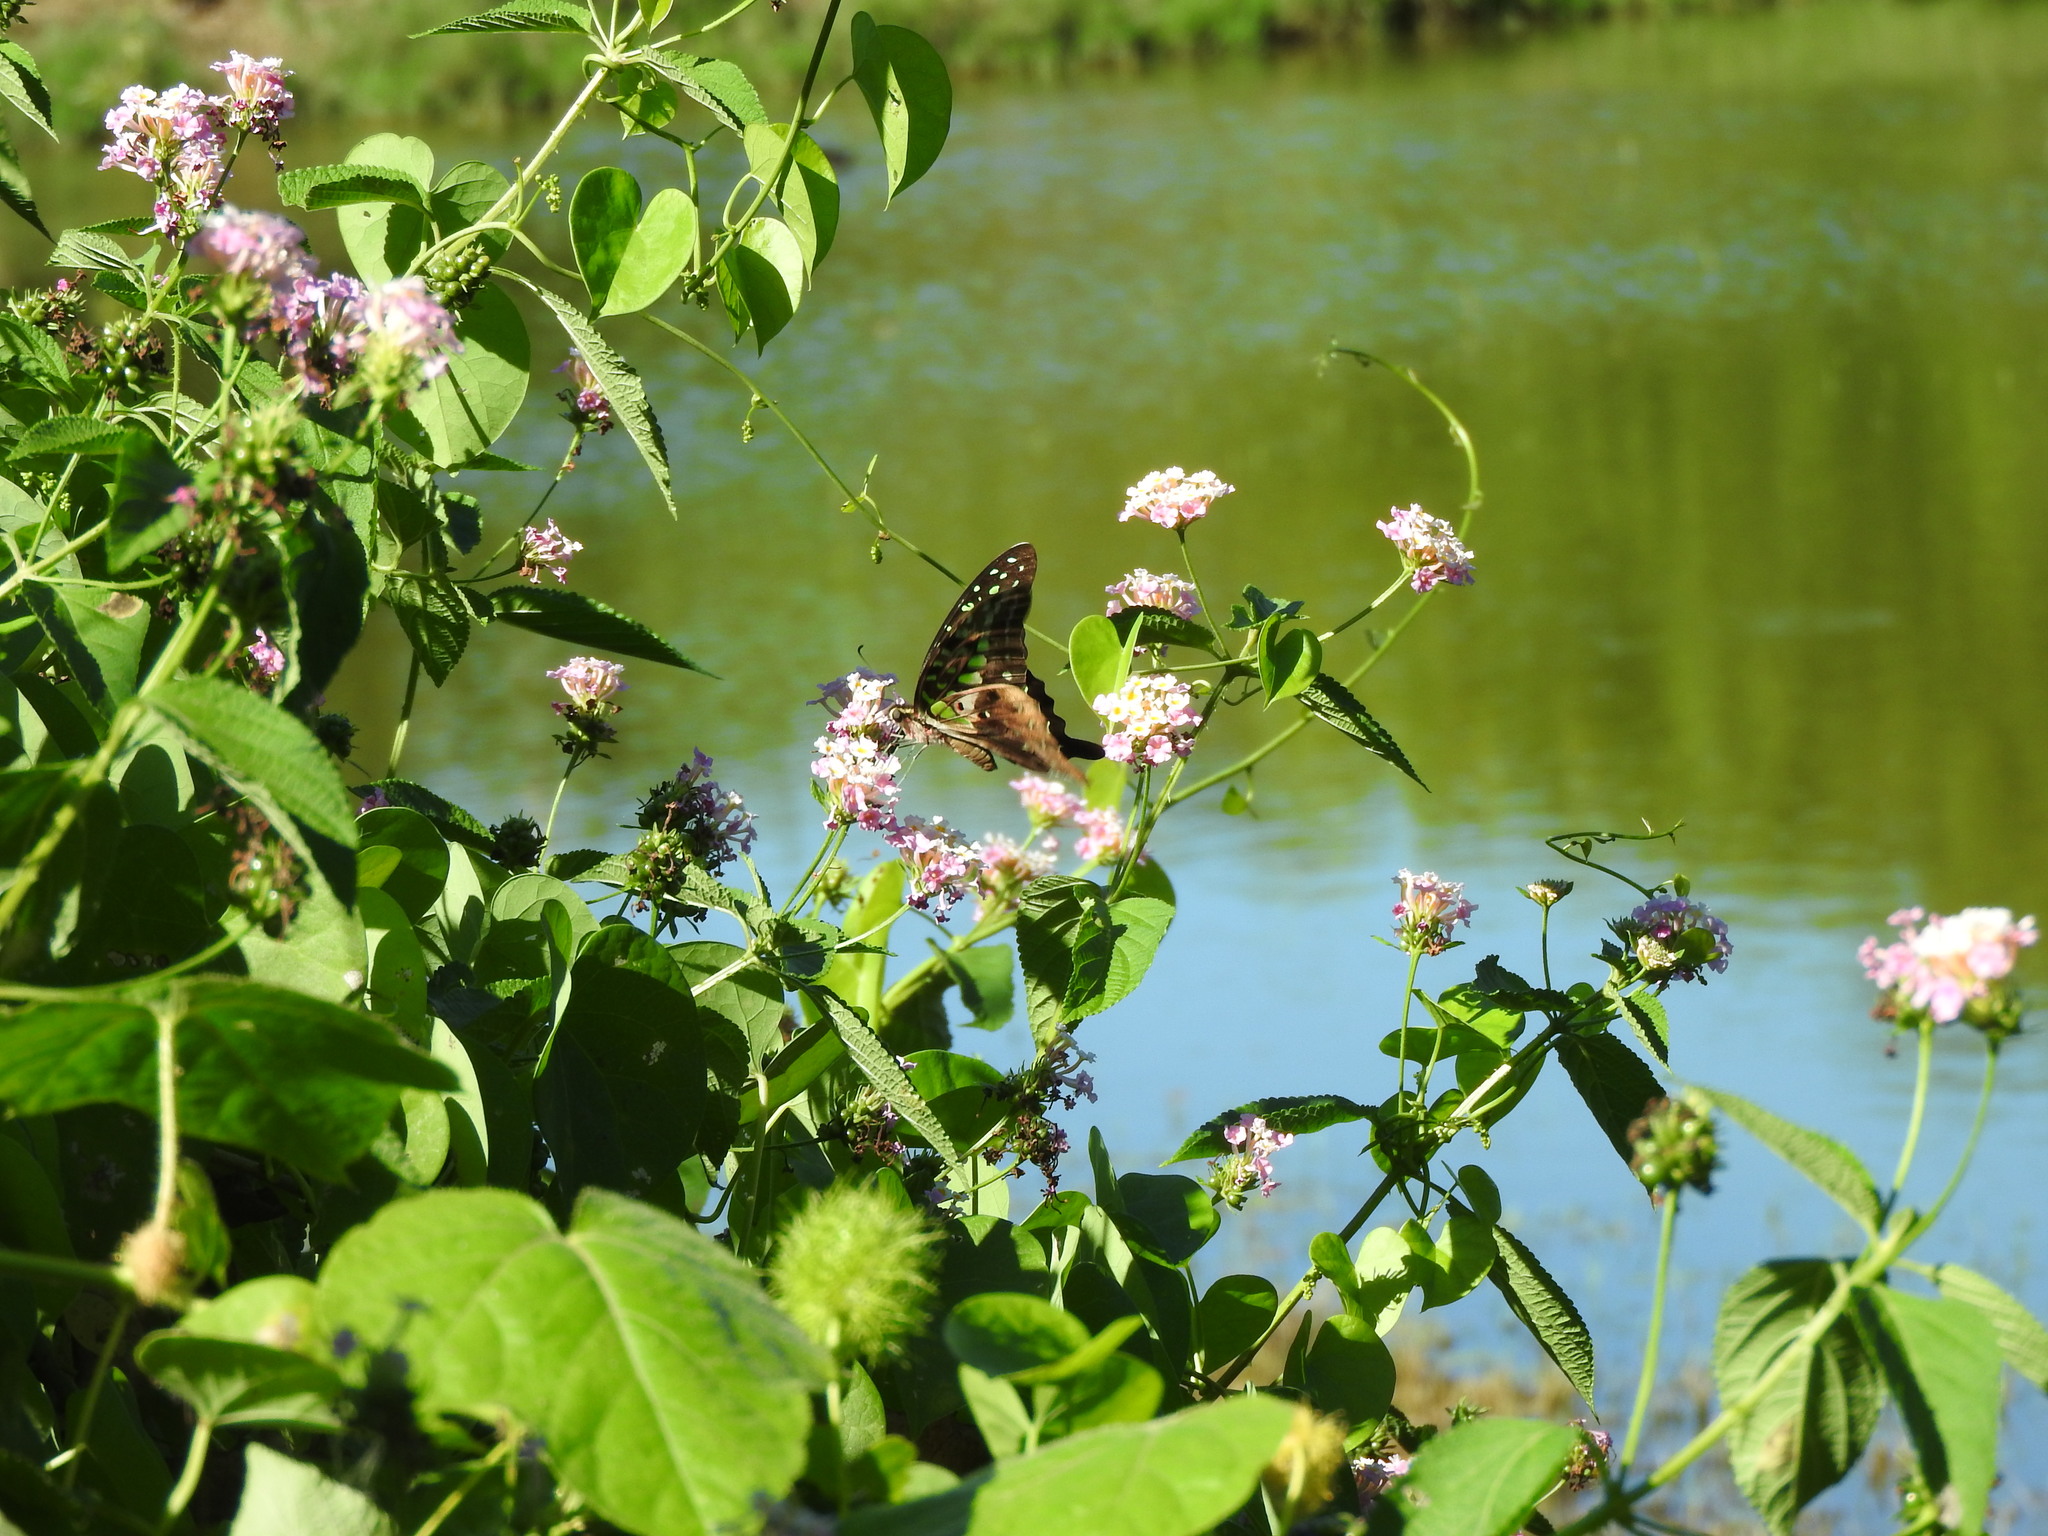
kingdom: Animalia
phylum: Arthropoda
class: Insecta
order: Lepidoptera
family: Papilionidae
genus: Graphium
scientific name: Graphium agamemnon
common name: Tailed jay
